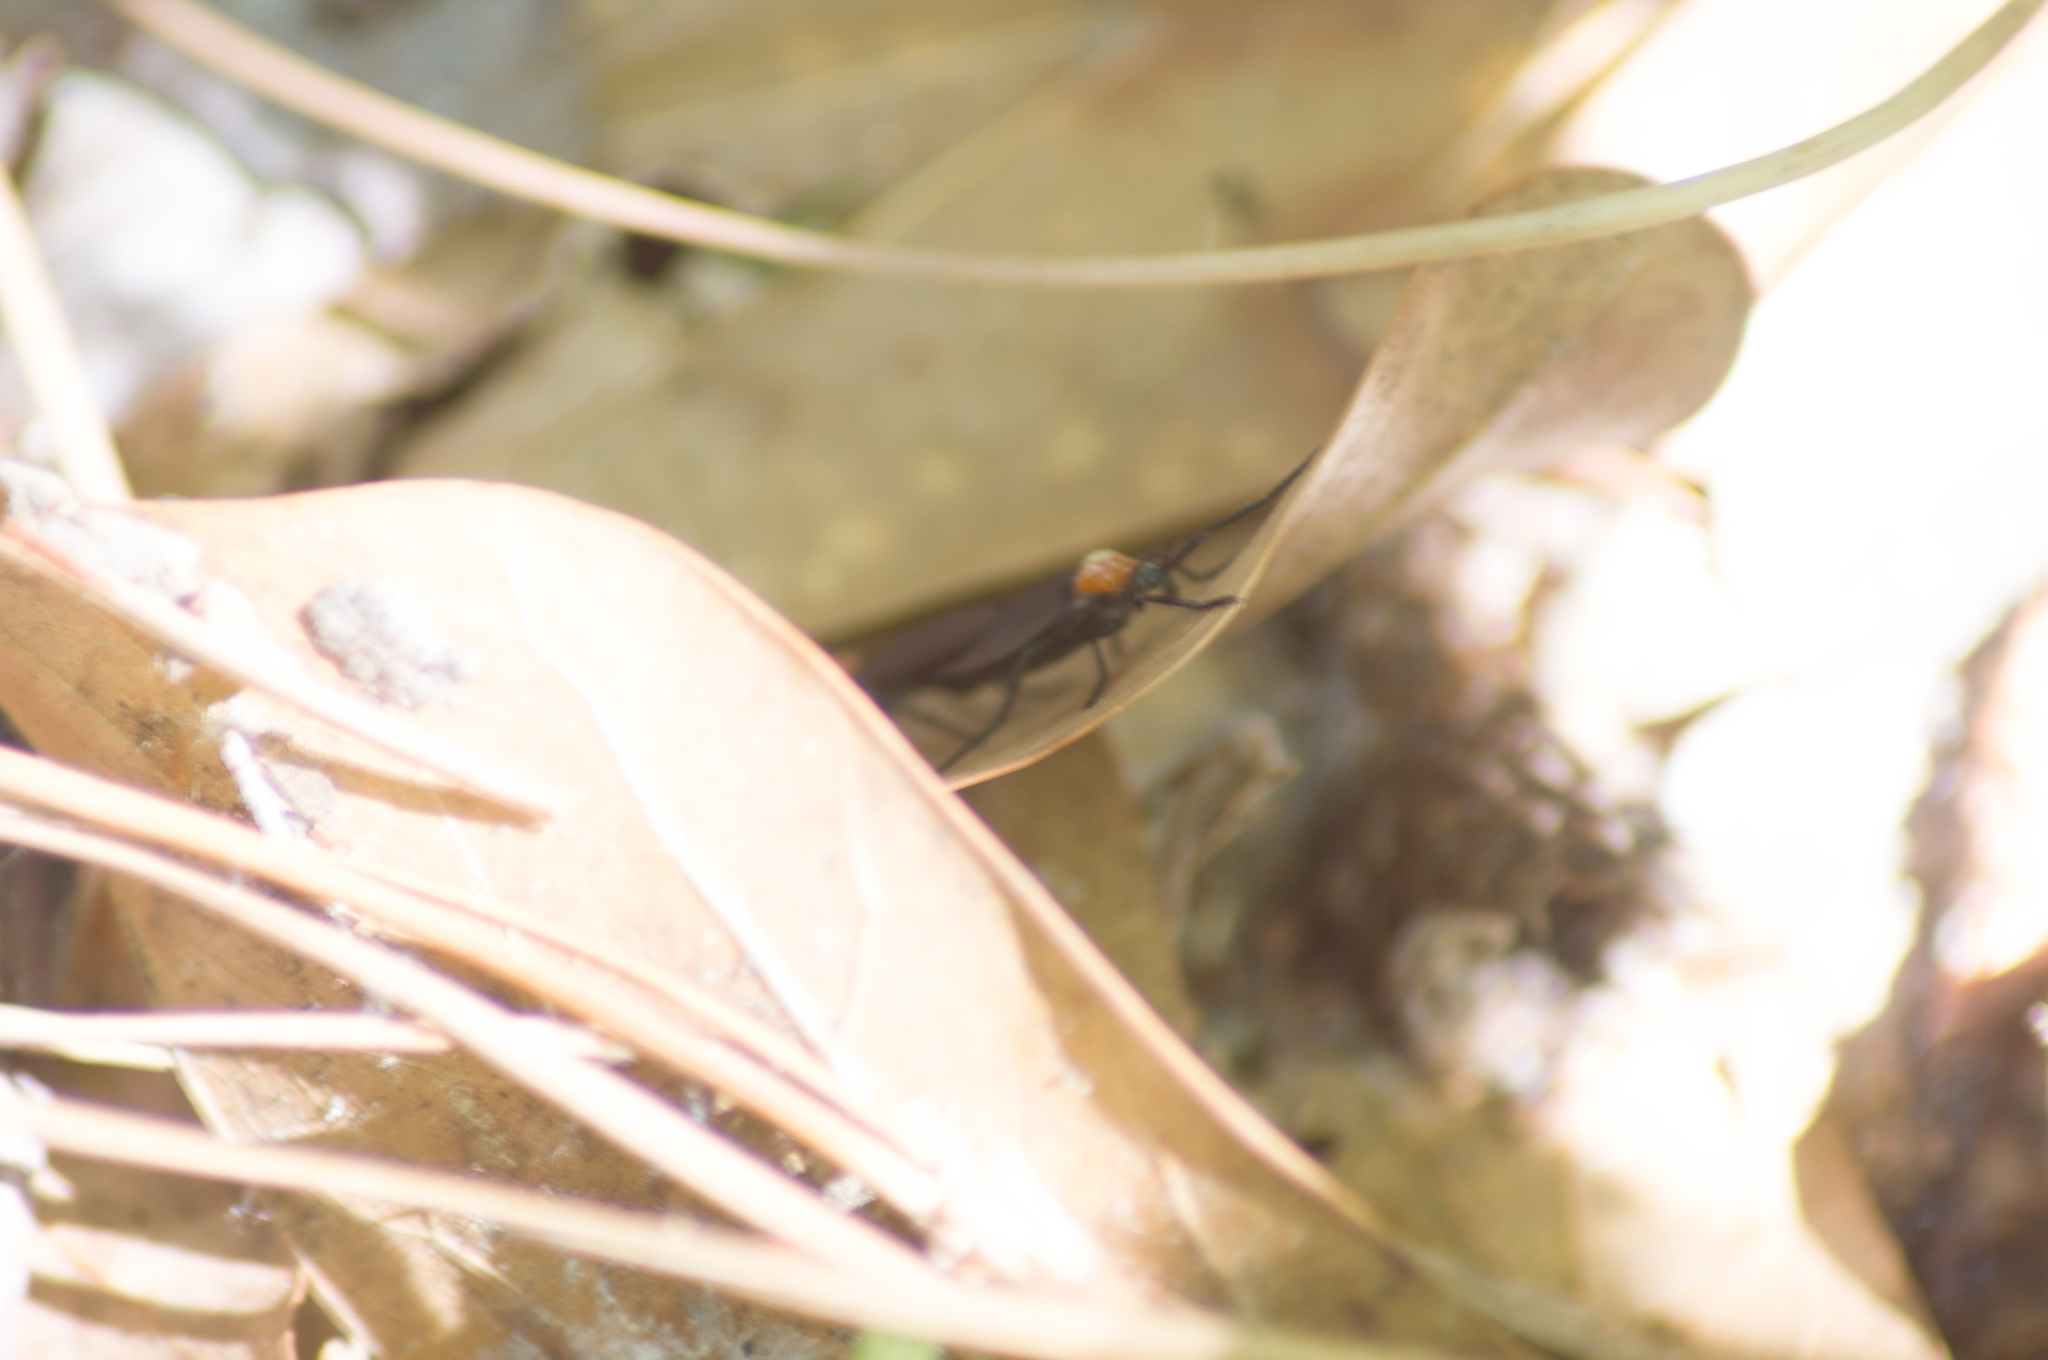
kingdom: Animalia
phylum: Arthropoda
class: Insecta
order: Diptera
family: Bibionidae
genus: Plecia
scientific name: Plecia nearctica
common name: March fly
